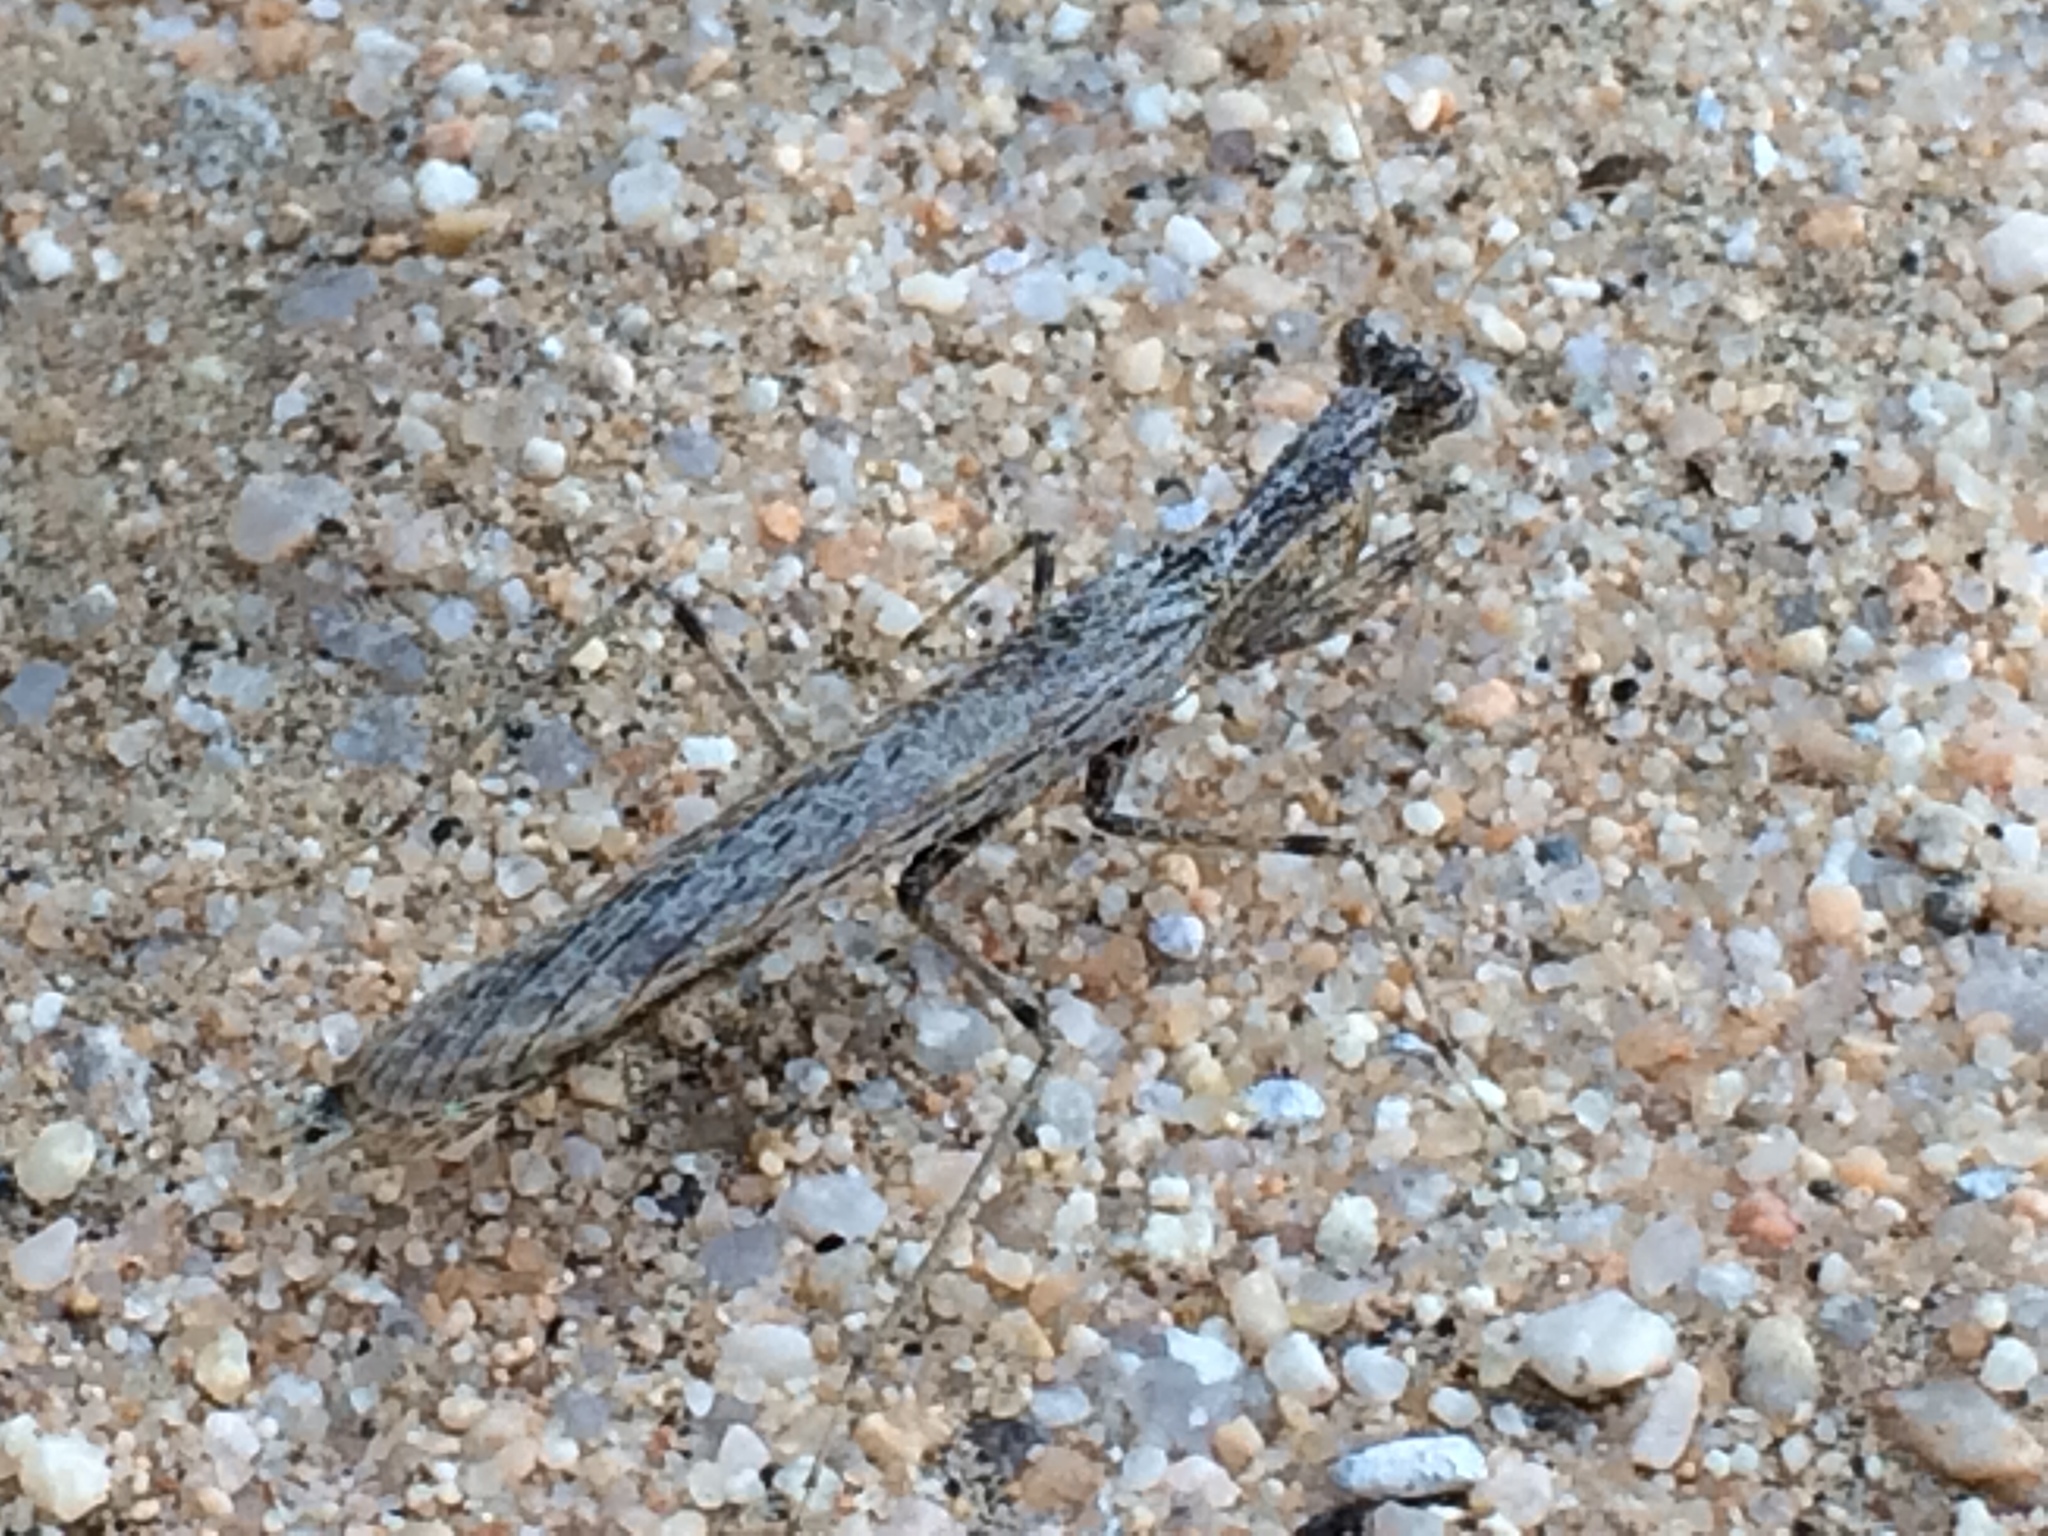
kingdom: Animalia
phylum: Arthropoda
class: Insecta
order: Mantodea
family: Amelidae
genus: Litaneutria
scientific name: Litaneutria ocularis
